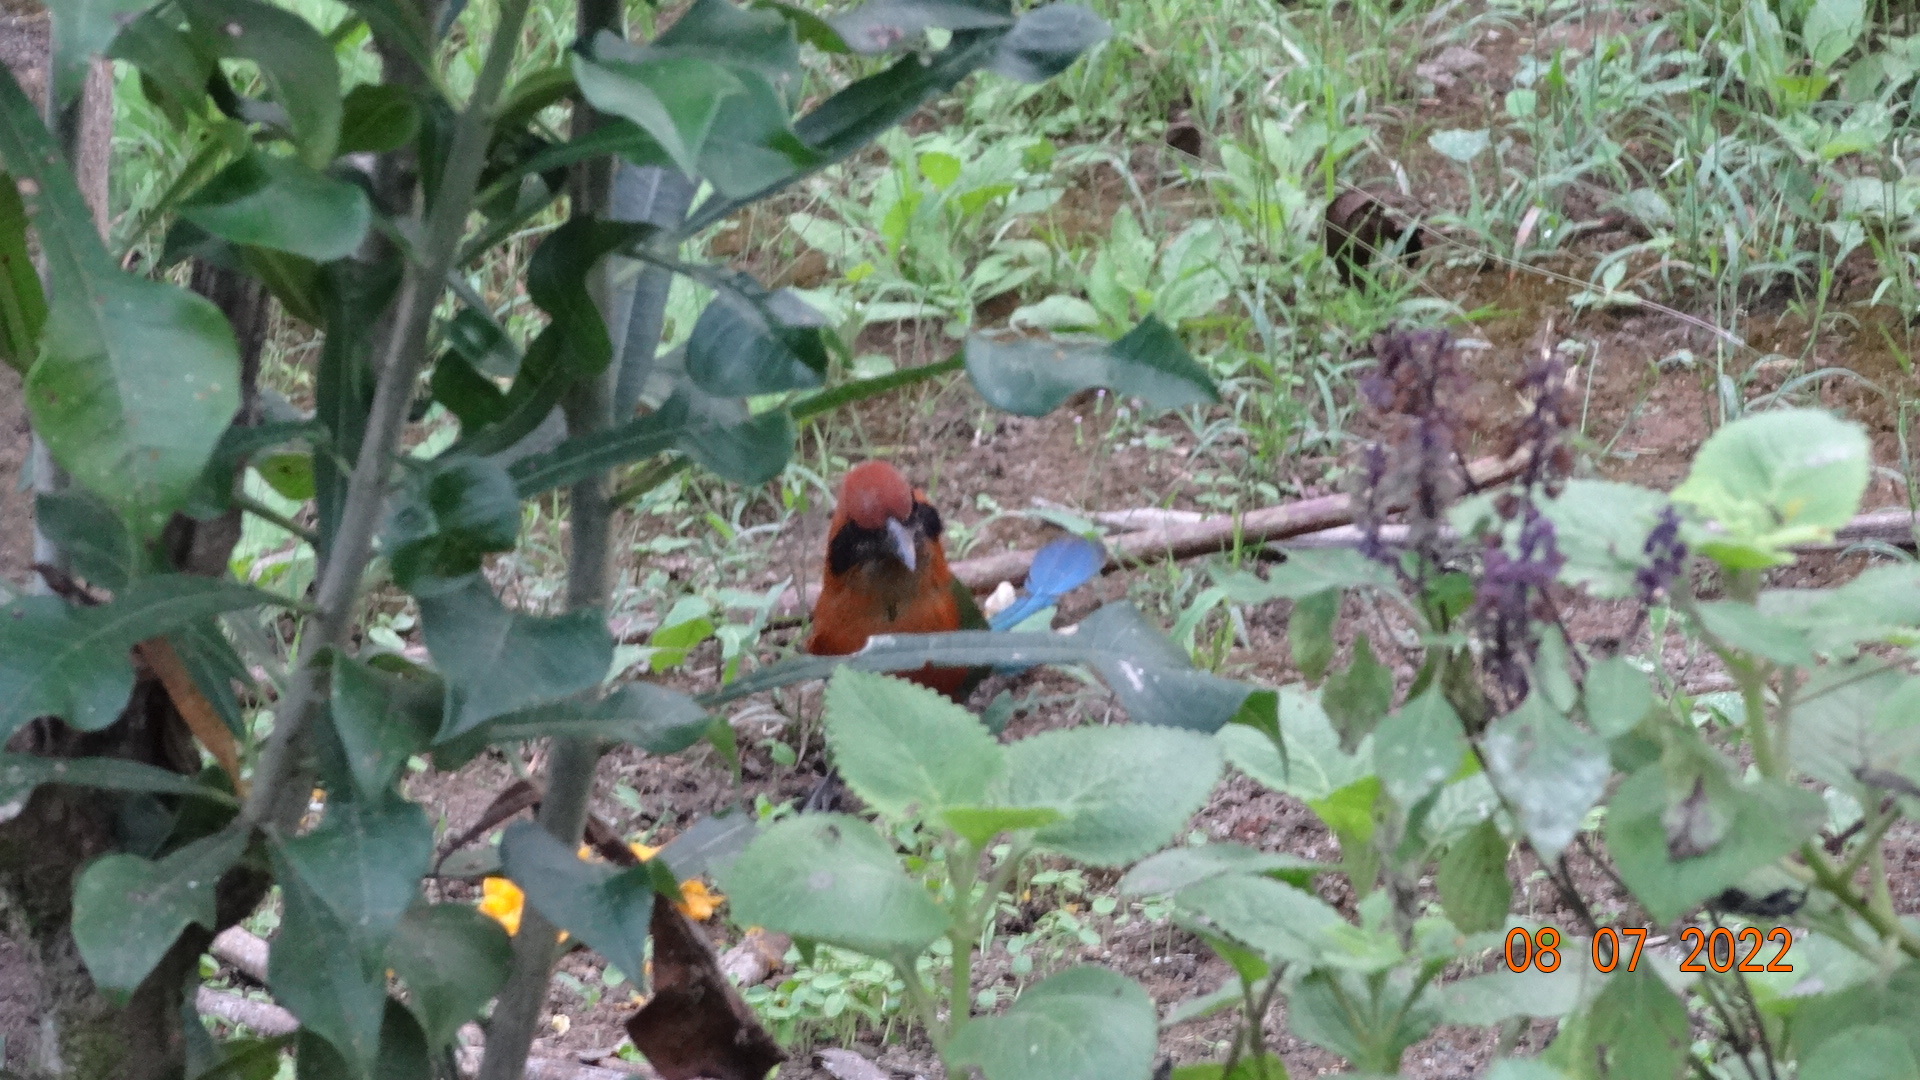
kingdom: Animalia
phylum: Chordata
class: Aves
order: Coraciiformes
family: Momotidae
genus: Baryphthengus
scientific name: Baryphthengus martii
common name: Rufous motmot
